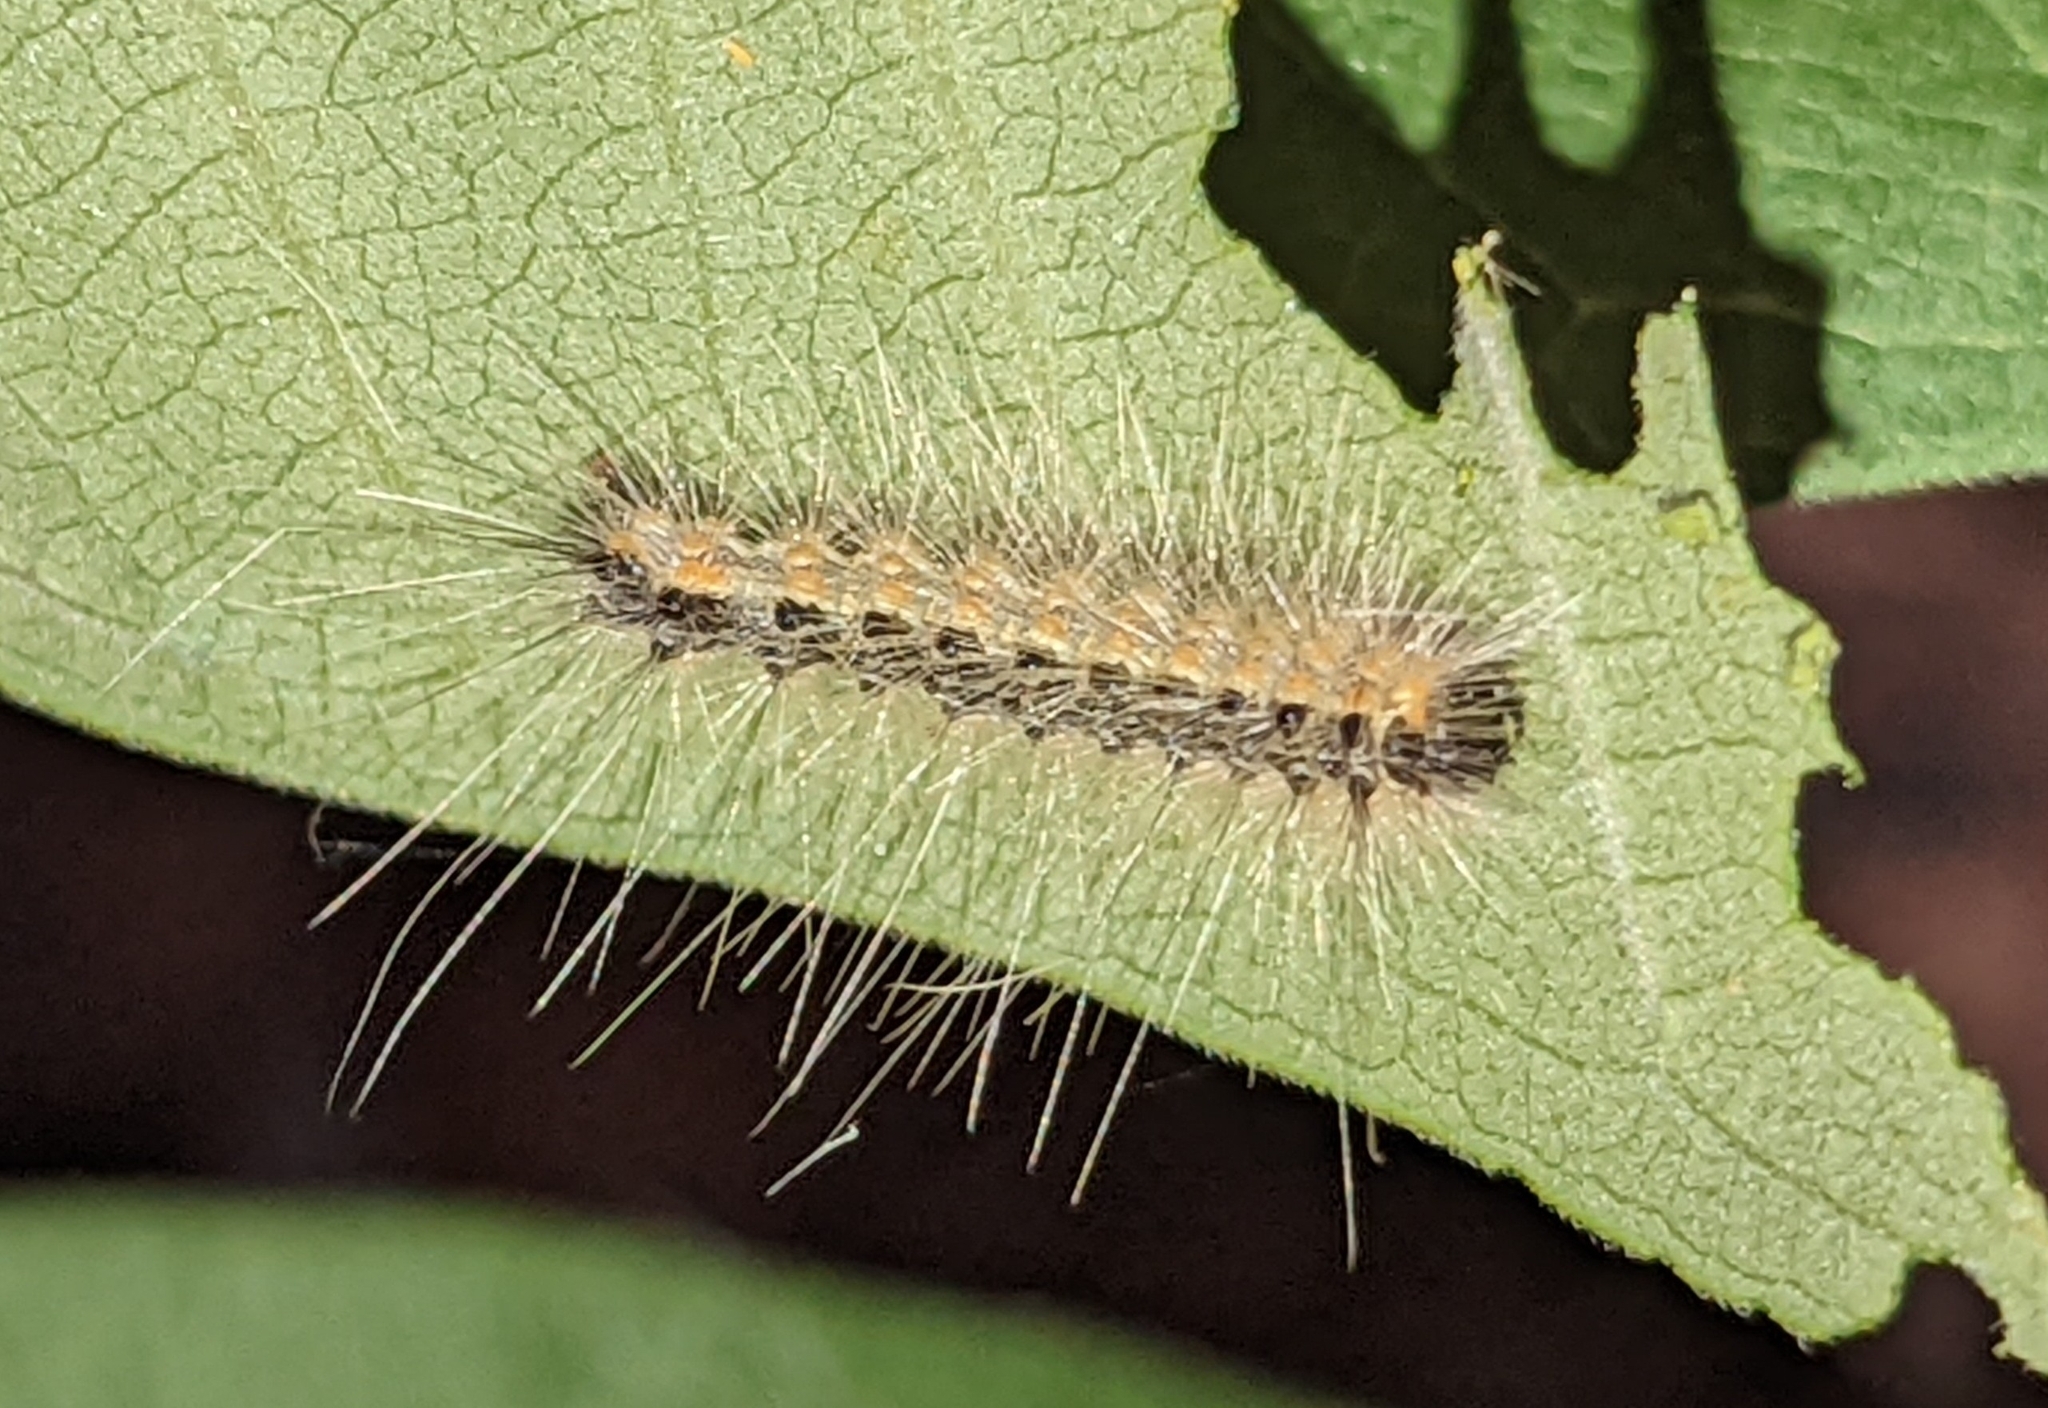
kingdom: Animalia
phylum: Arthropoda
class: Insecta
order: Lepidoptera
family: Erebidae
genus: Hyphantria
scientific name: Hyphantria cunea
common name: American white moth
